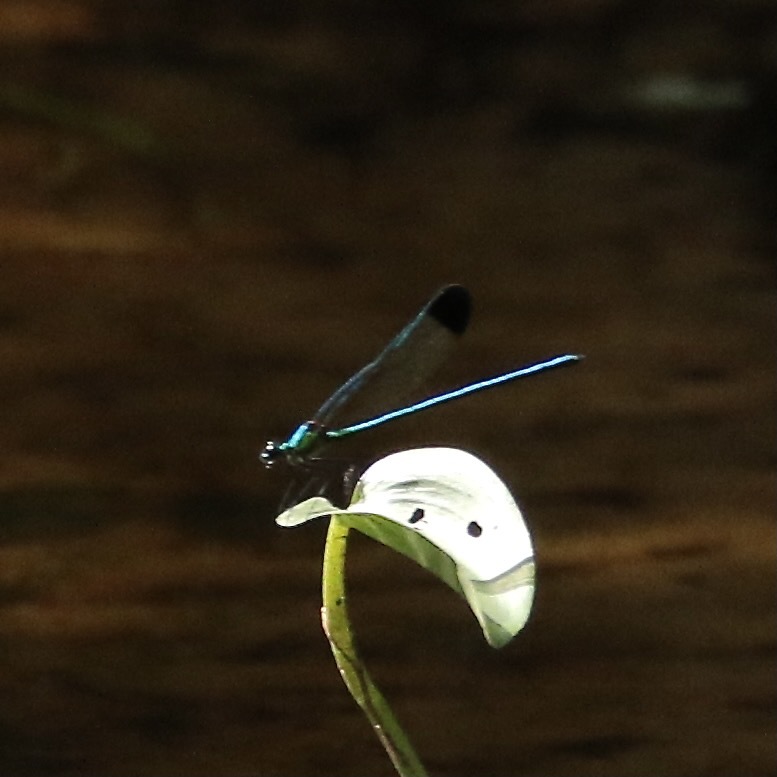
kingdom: Animalia
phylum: Arthropoda
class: Insecta
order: Odonata
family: Calopterygidae
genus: Calopteryx
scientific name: Calopteryx dimidiata
